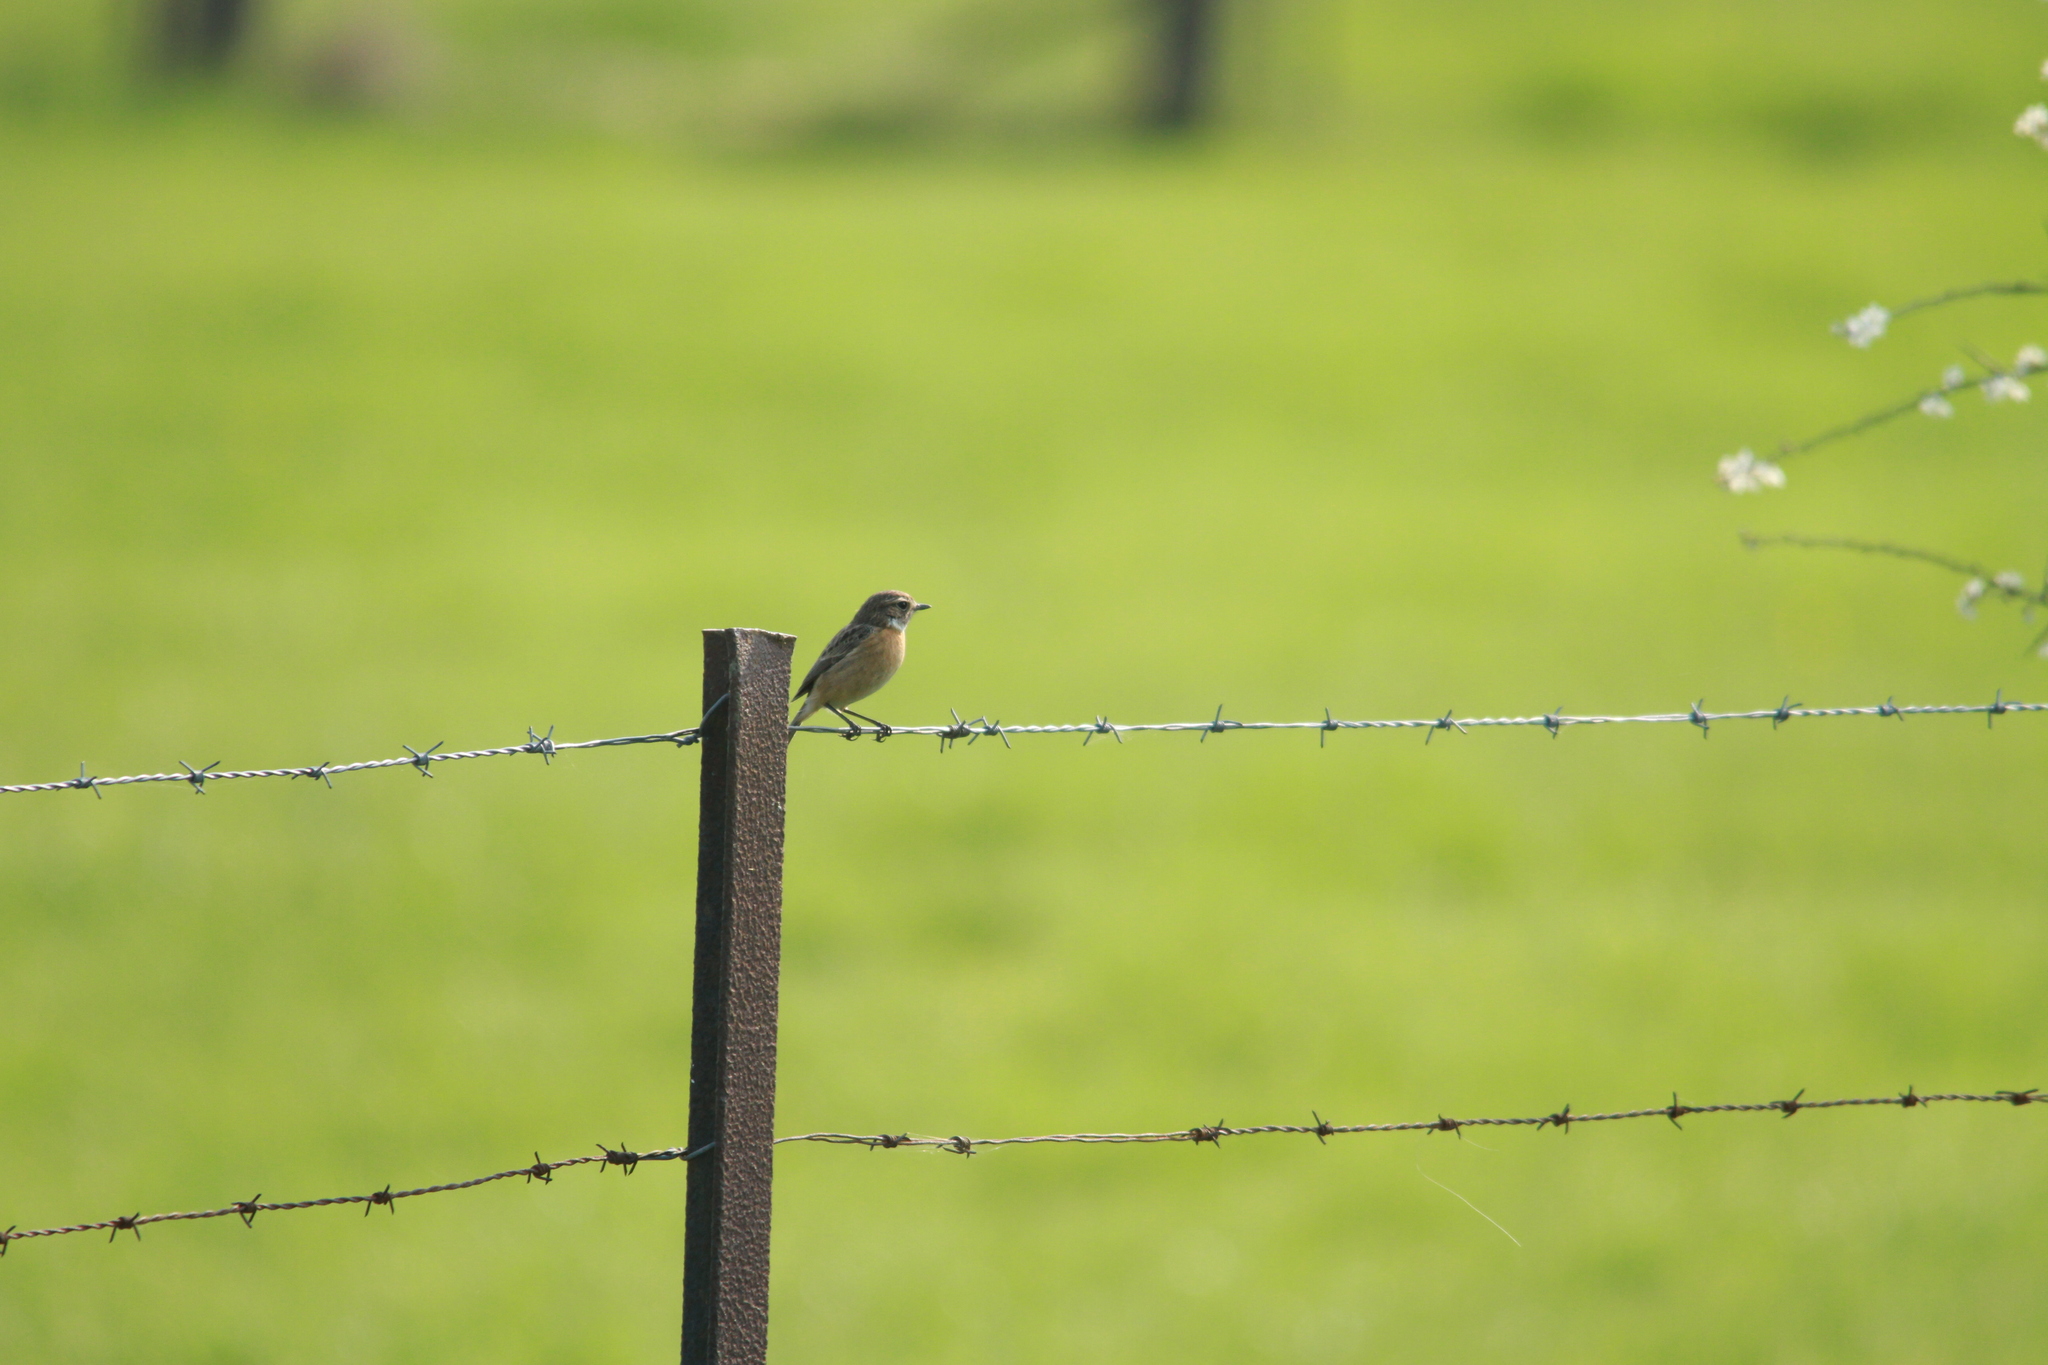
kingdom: Animalia
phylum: Chordata
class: Aves
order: Passeriformes
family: Muscicapidae
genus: Saxicola
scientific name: Saxicola rubicola
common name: European stonechat
